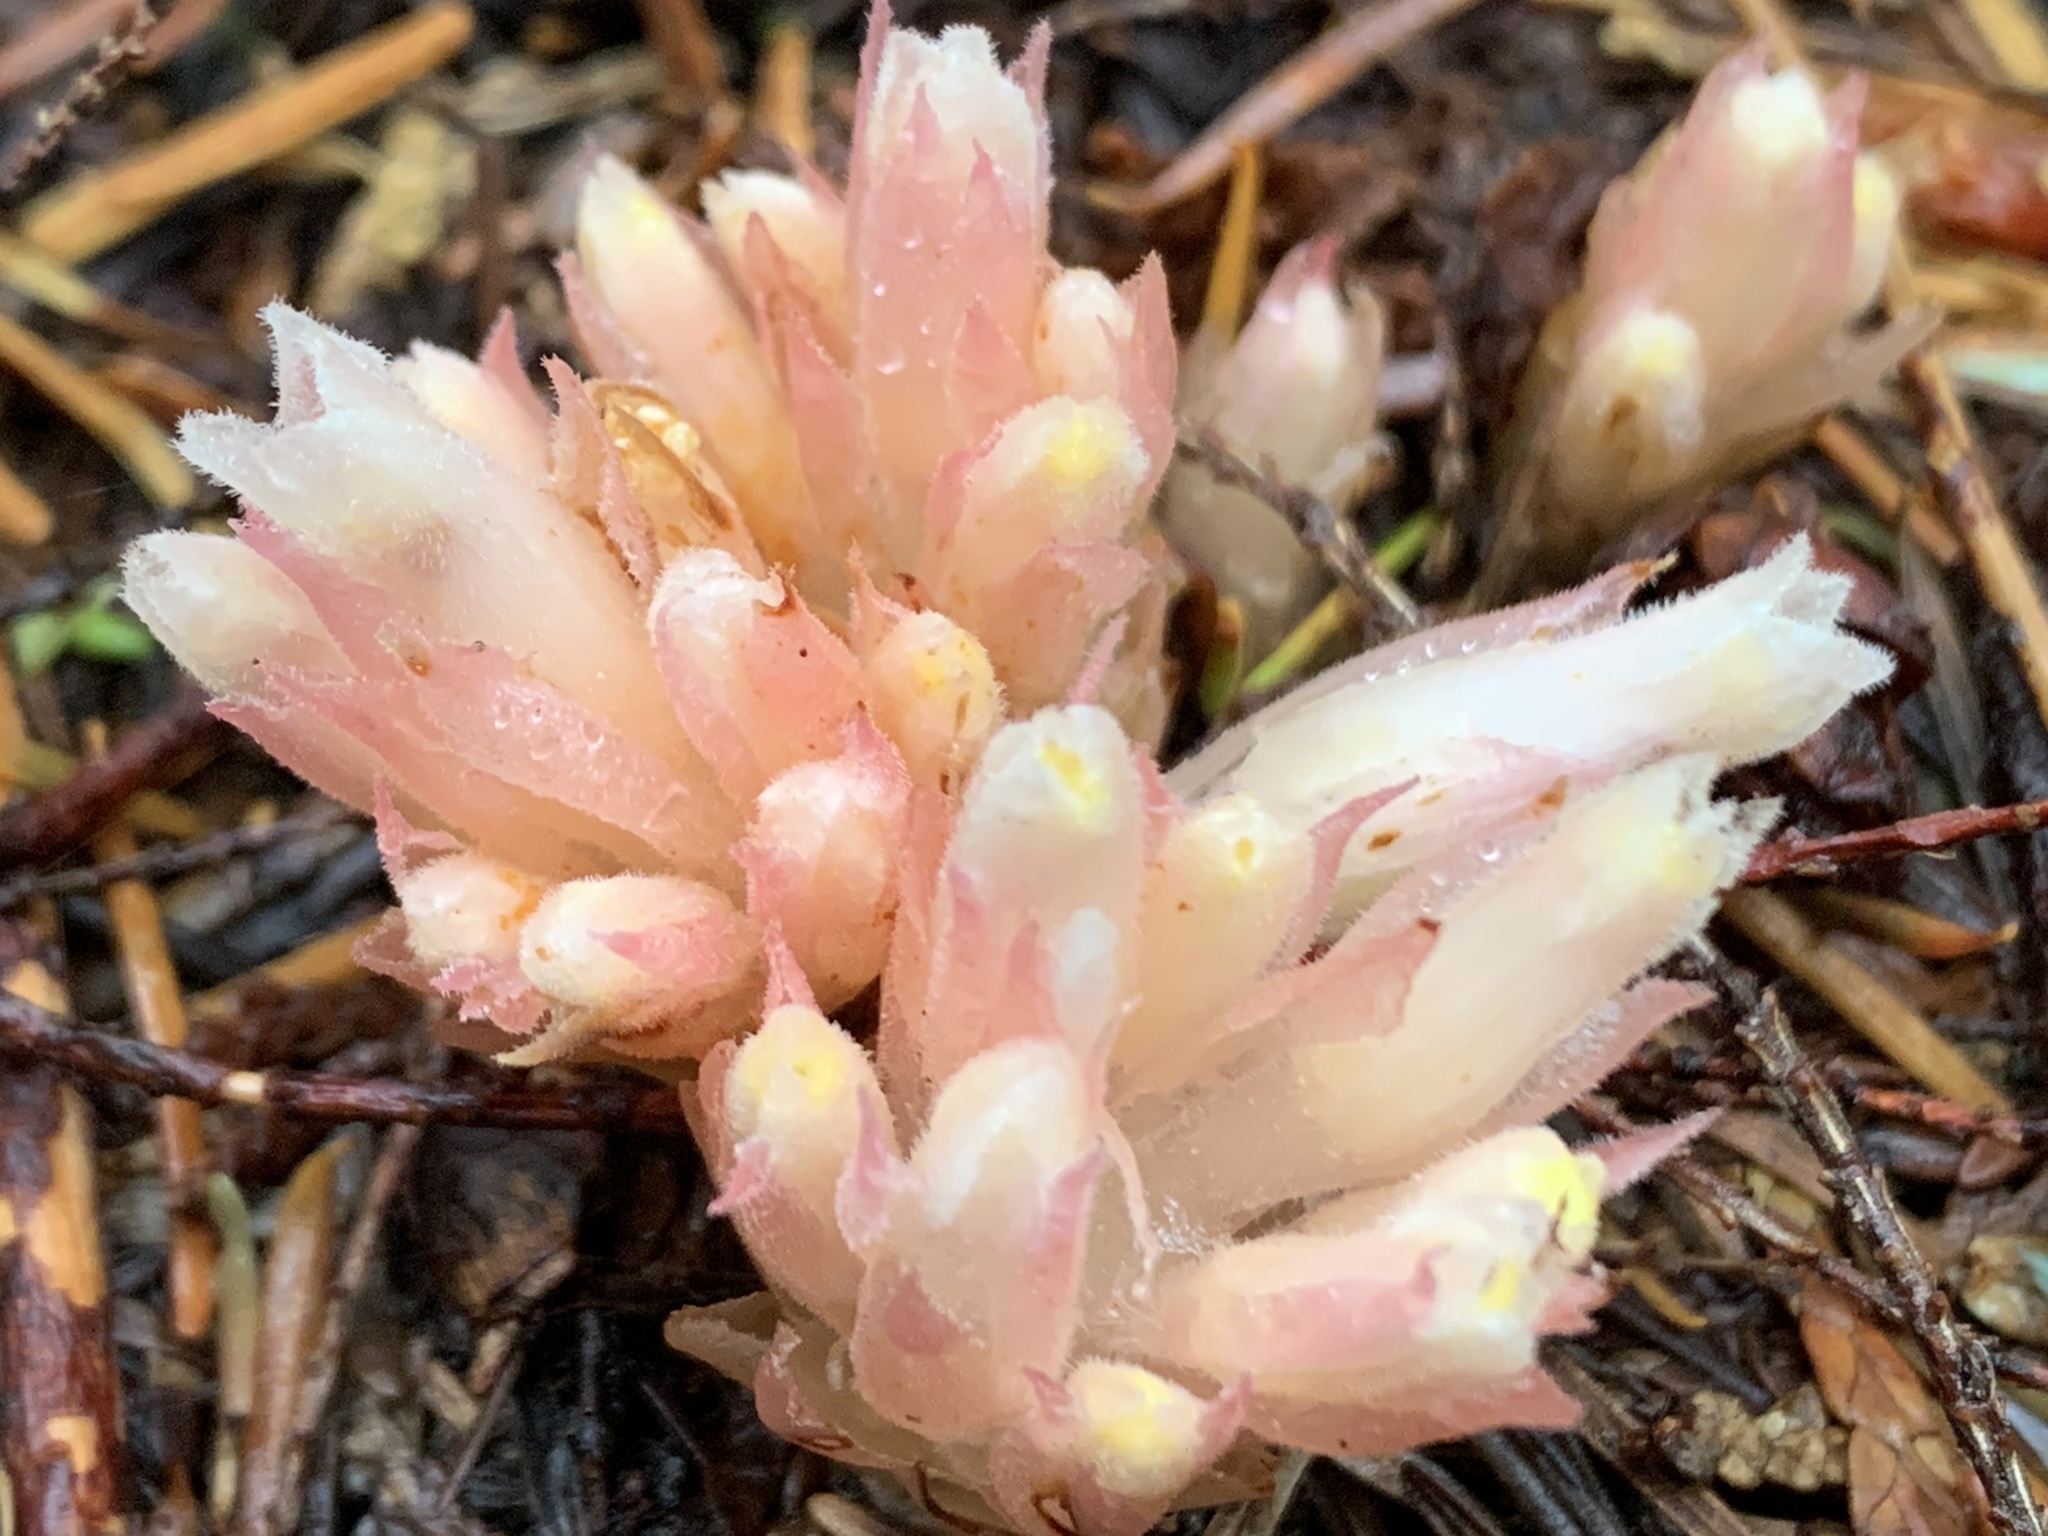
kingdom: Plantae
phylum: Tracheophyta
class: Magnoliopsida
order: Ericales
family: Ericaceae
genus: Hemitomes
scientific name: Hemitomes congestum
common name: Cone plant
